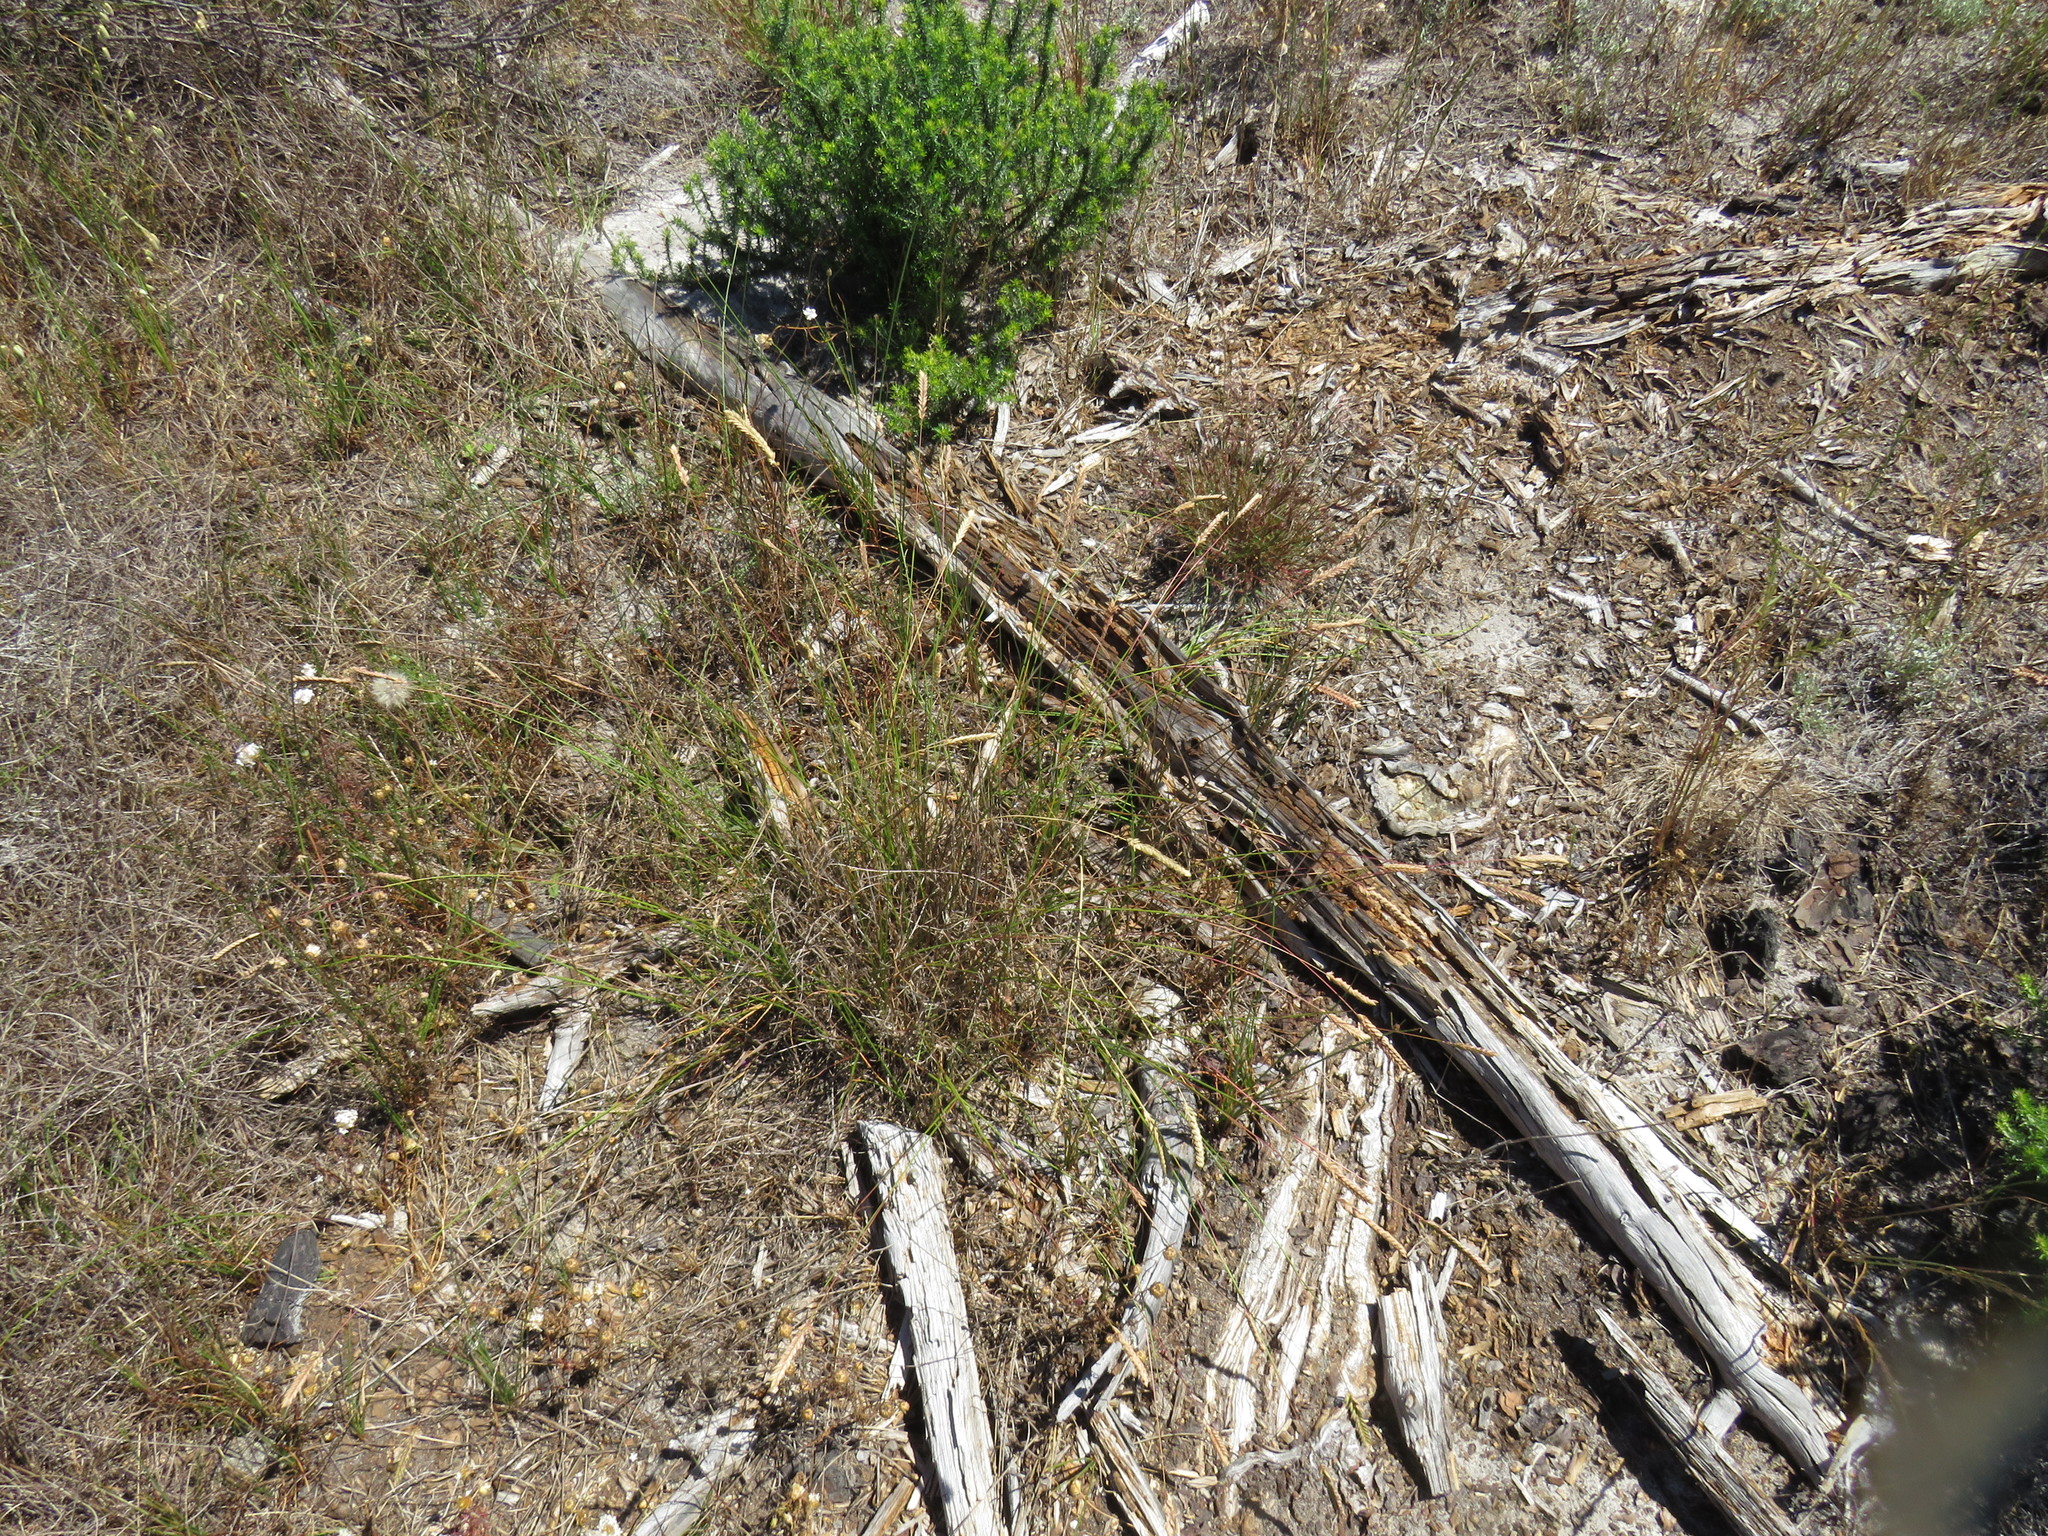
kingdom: Plantae
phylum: Tracheophyta
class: Liliopsida
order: Poales
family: Poaceae
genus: Tribolium
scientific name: Tribolium uniolae
